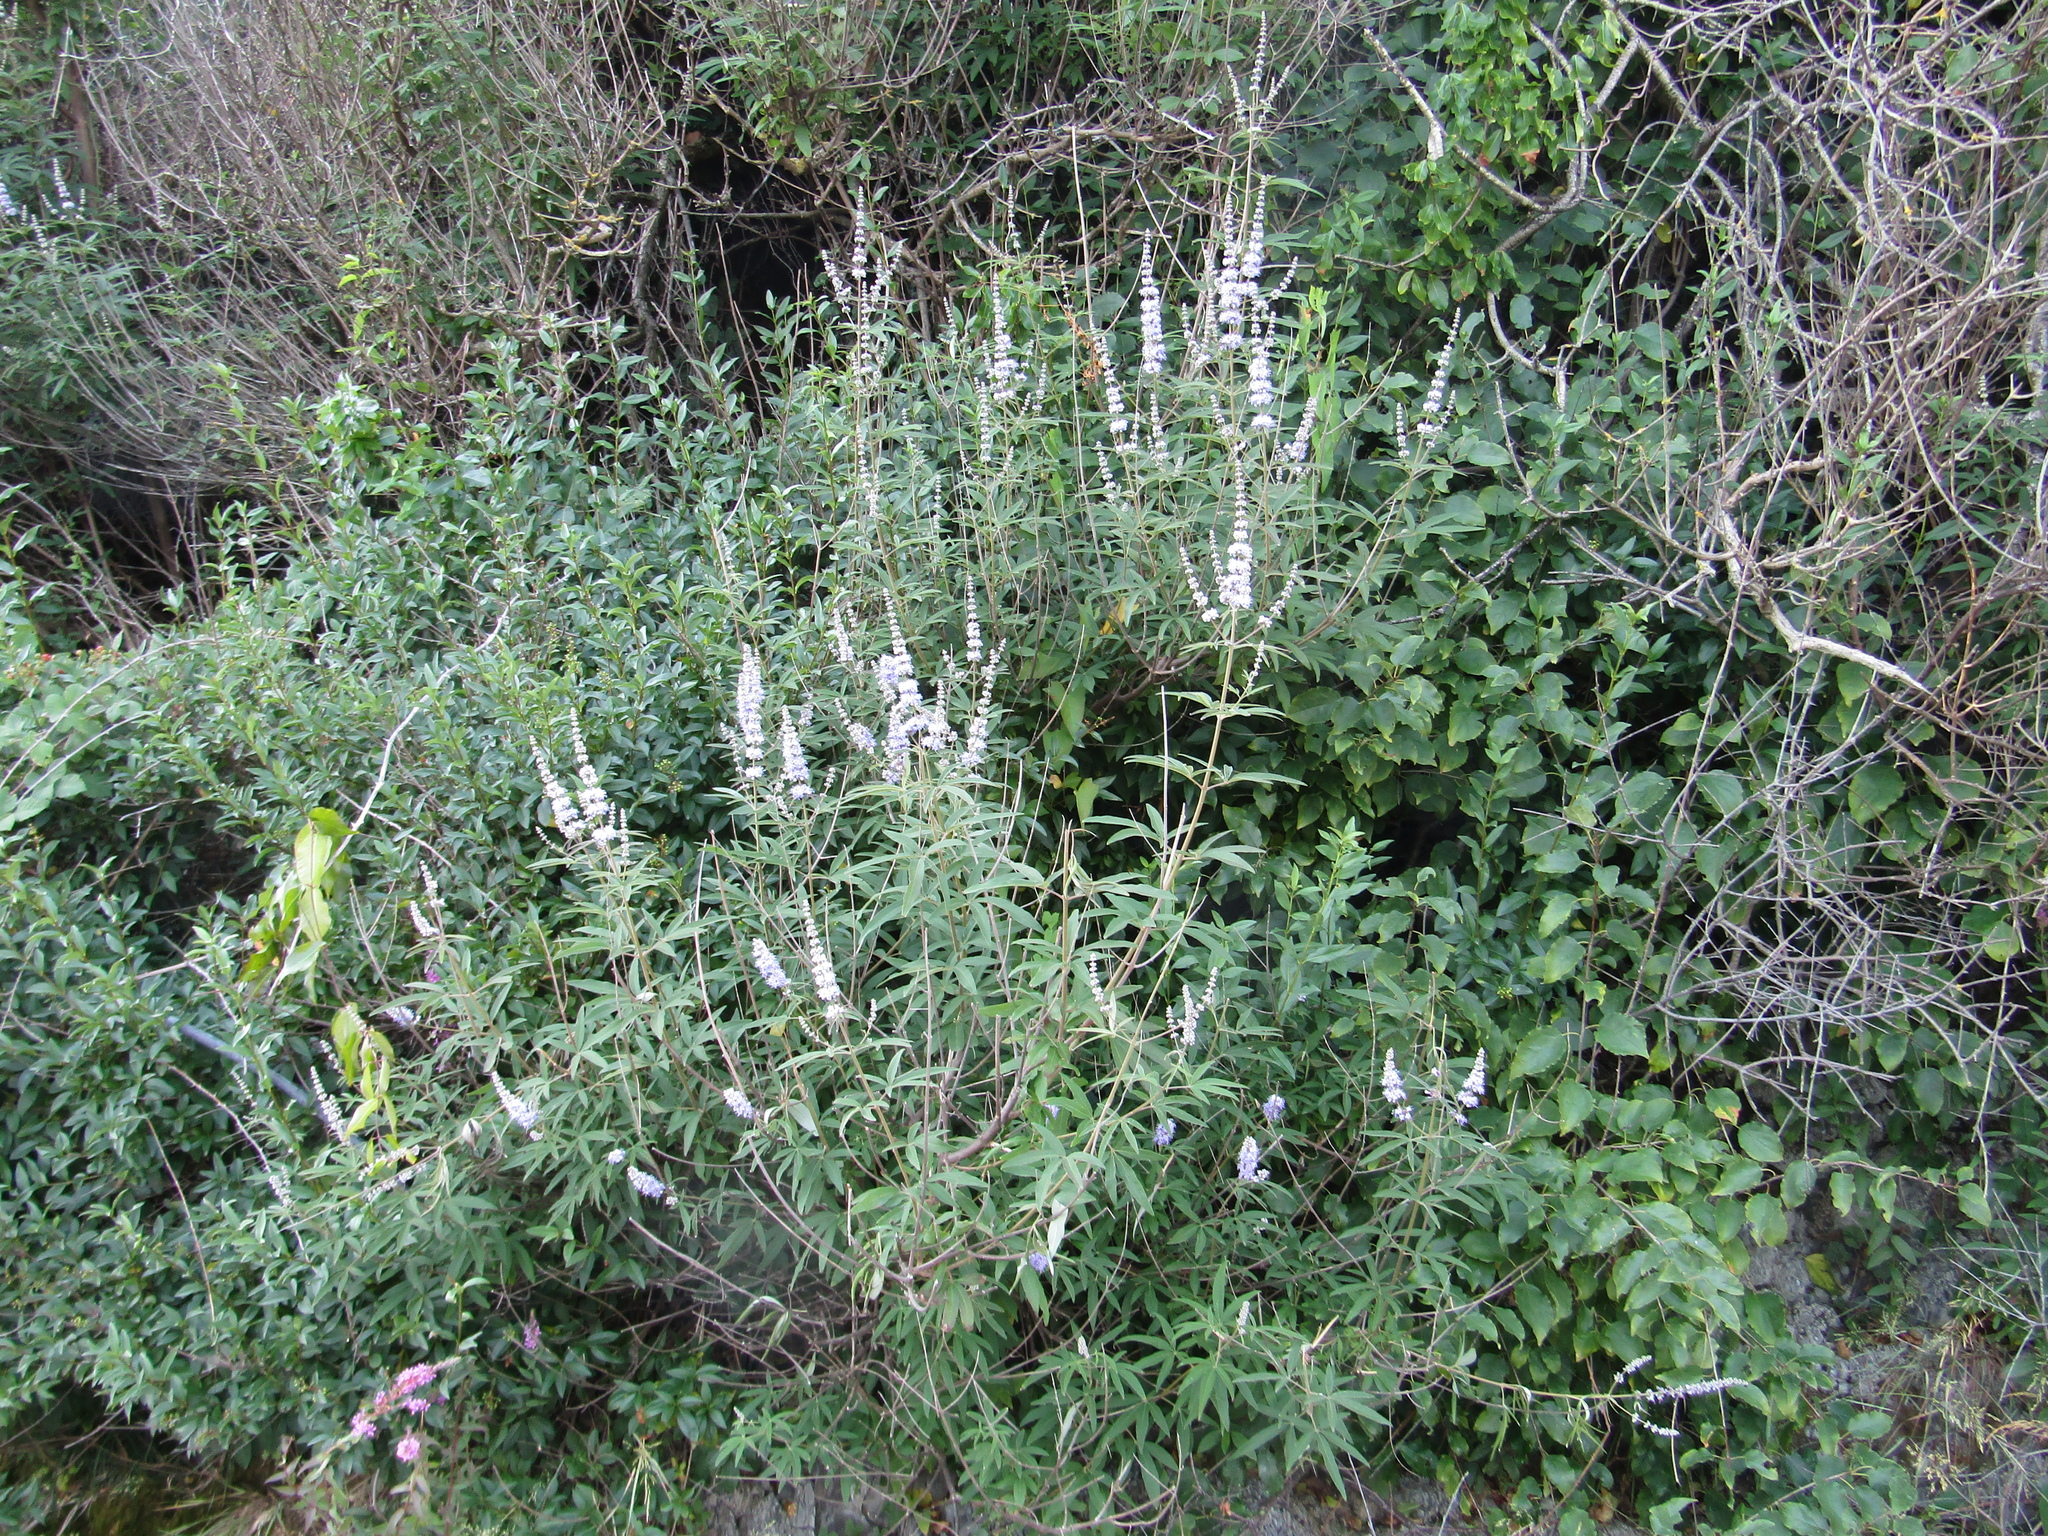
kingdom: Plantae
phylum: Tracheophyta
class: Magnoliopsida
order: Lamiales
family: Lamiaceae
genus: Vitex
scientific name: Vitex agnus-castus
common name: Chasteberry
